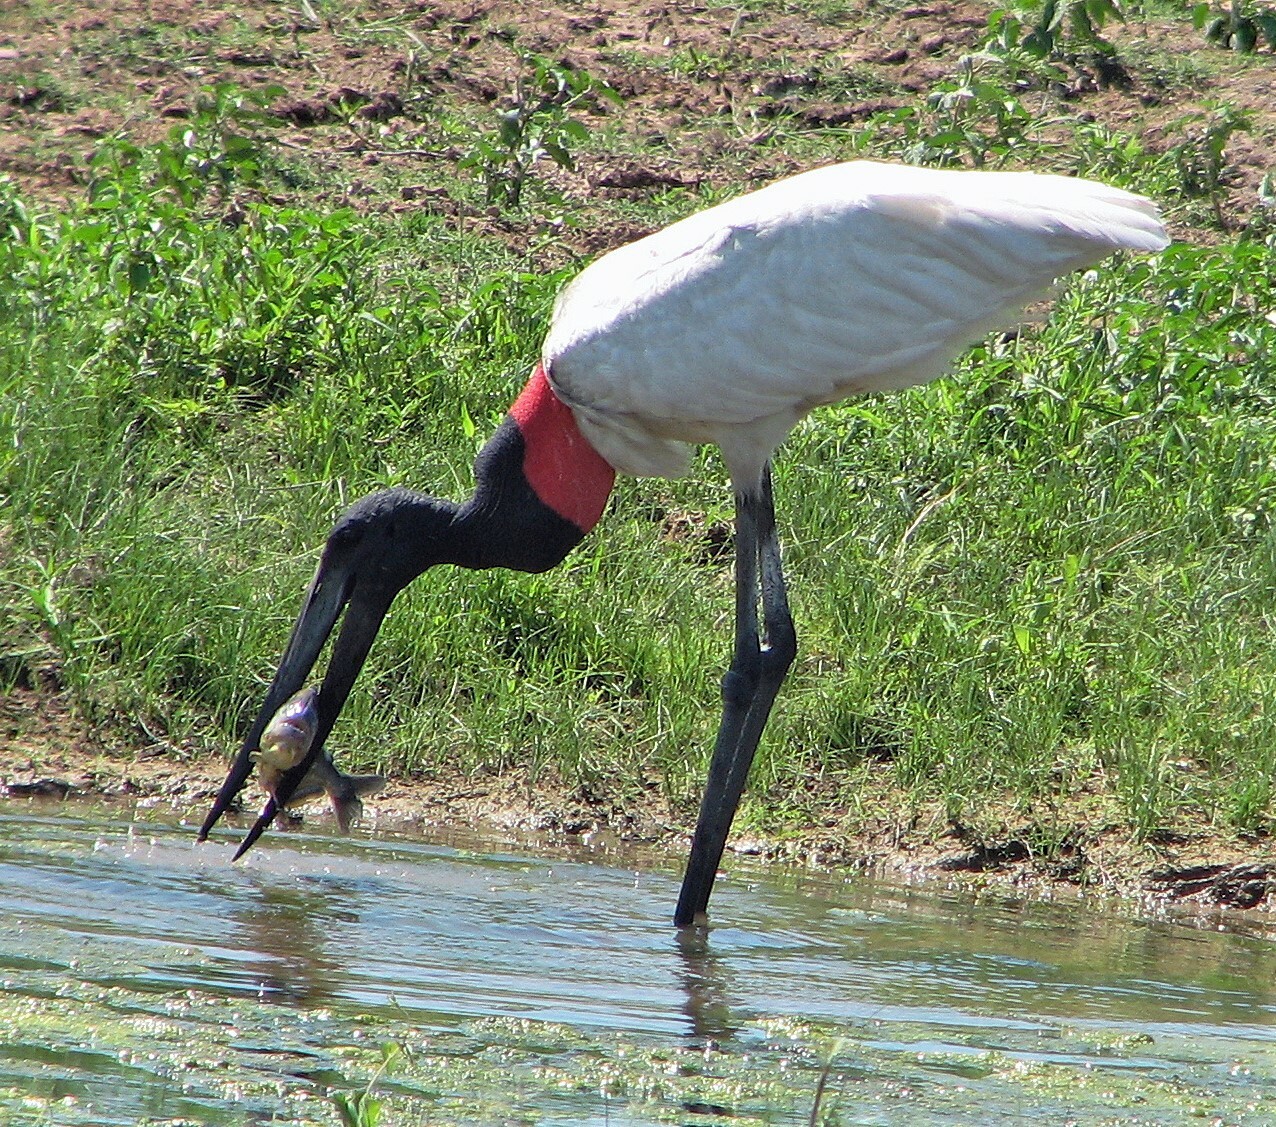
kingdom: Animalia
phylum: Chordata
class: Aves
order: Ciconiiformes
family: Ciconiidae
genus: Jabiru
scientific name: Jabiru mycteria
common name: Jabiru
